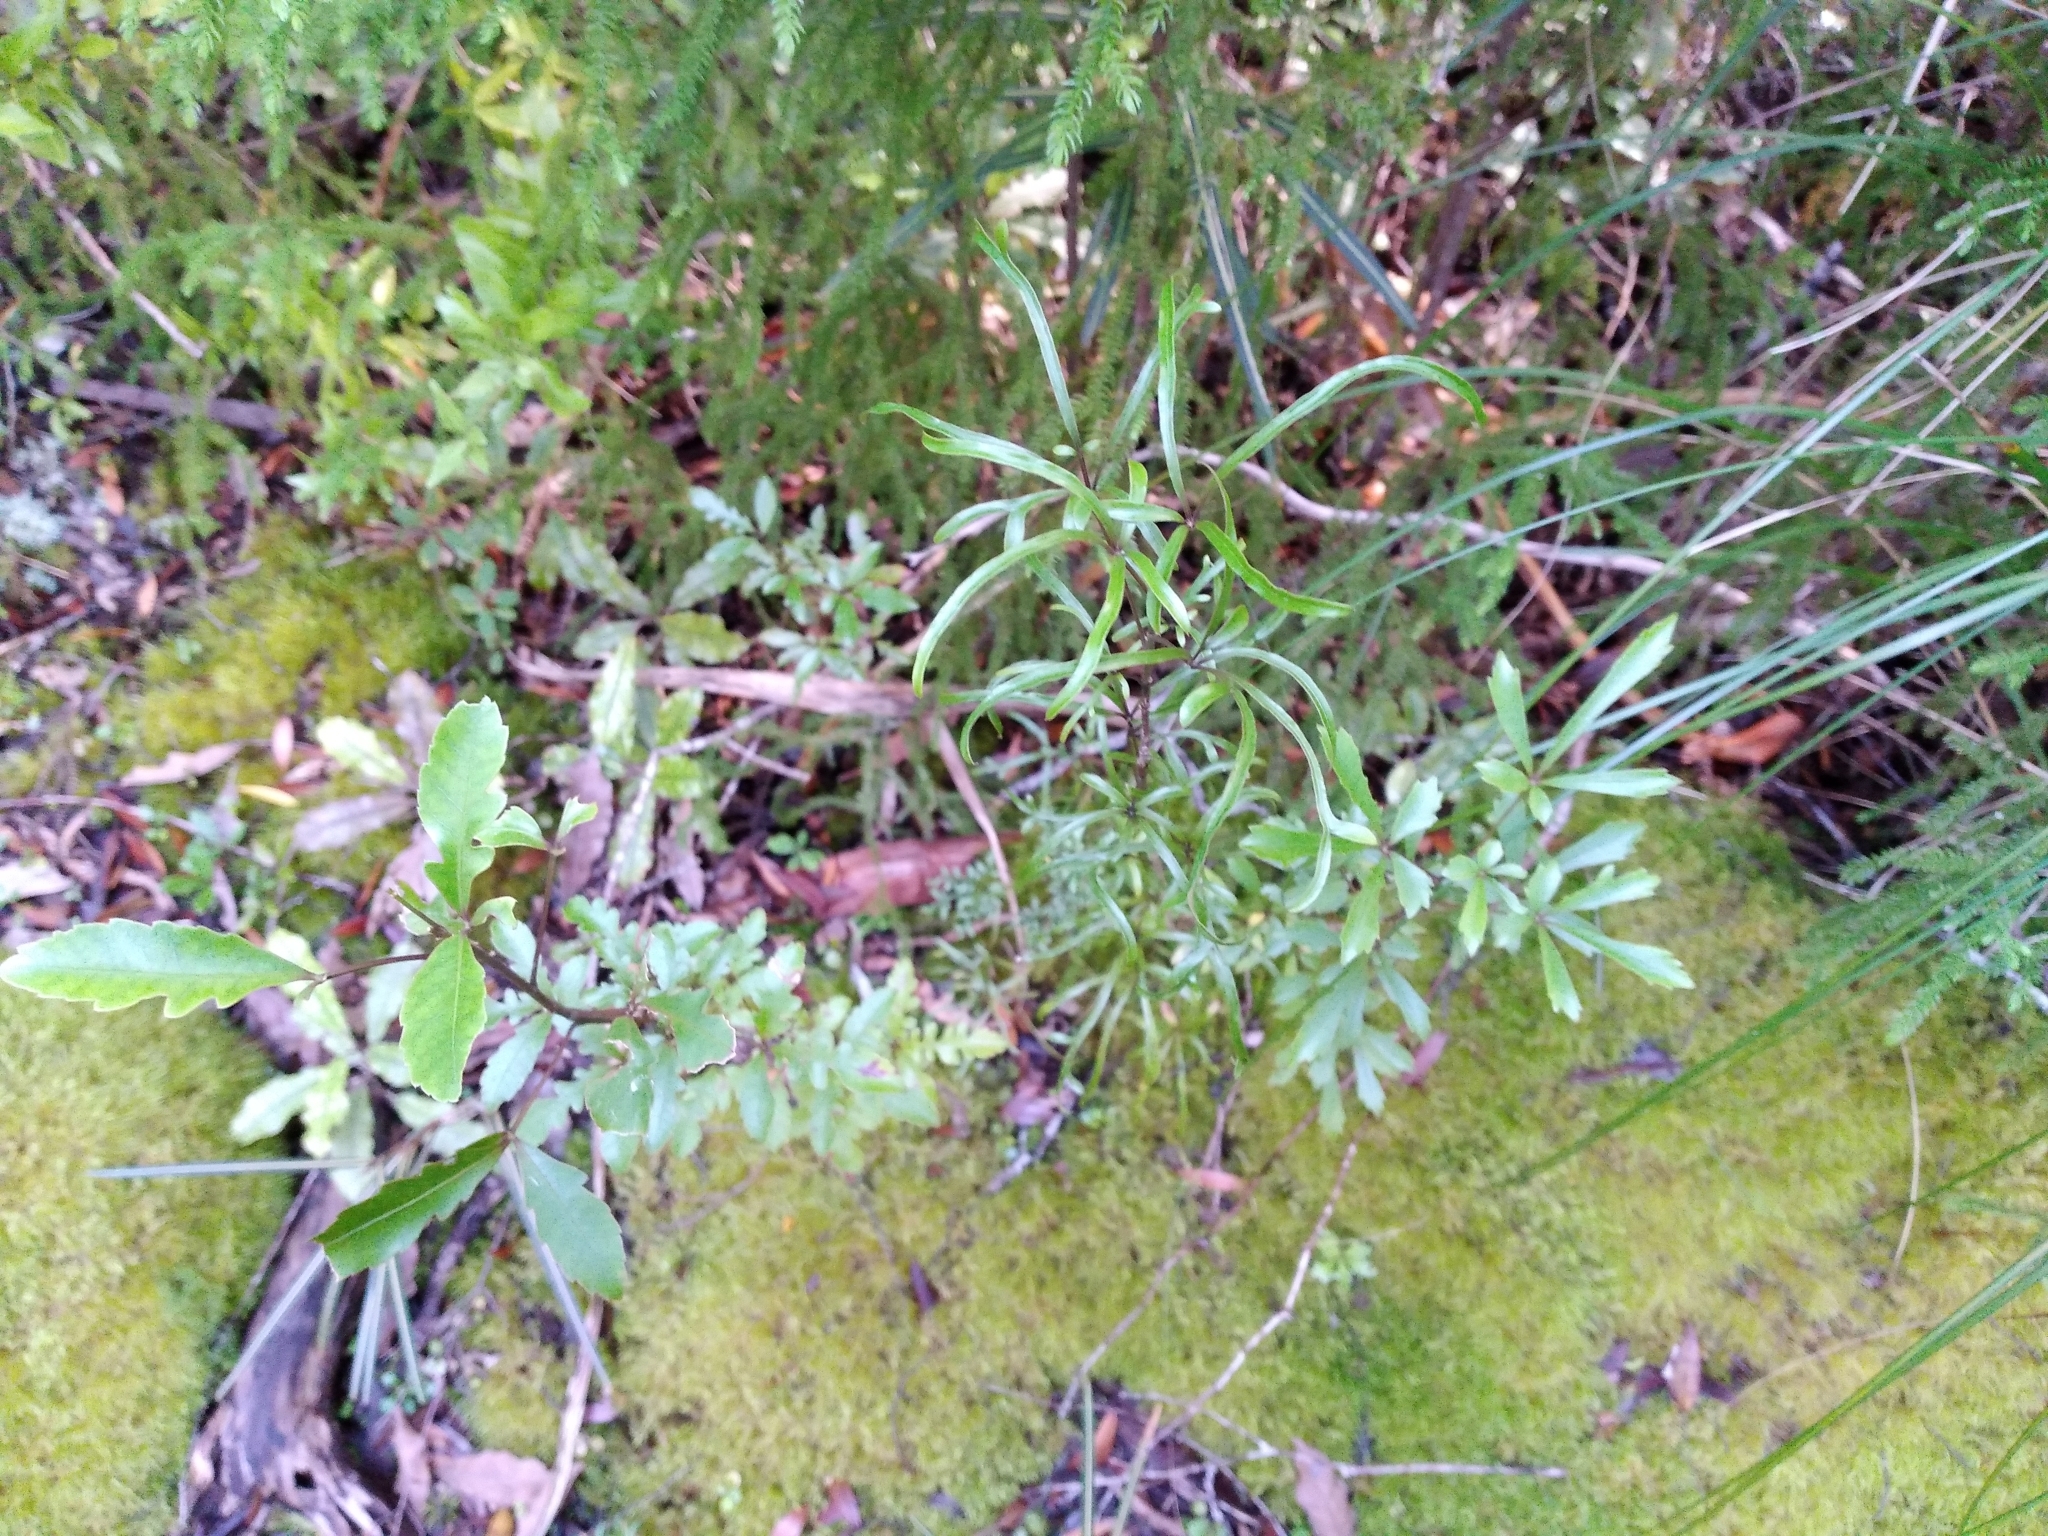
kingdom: Plantae
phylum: Tracheophyta
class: Magnoliopsida
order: Apiales
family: Araliaceae
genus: Raukaua
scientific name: Raukaua simplex
